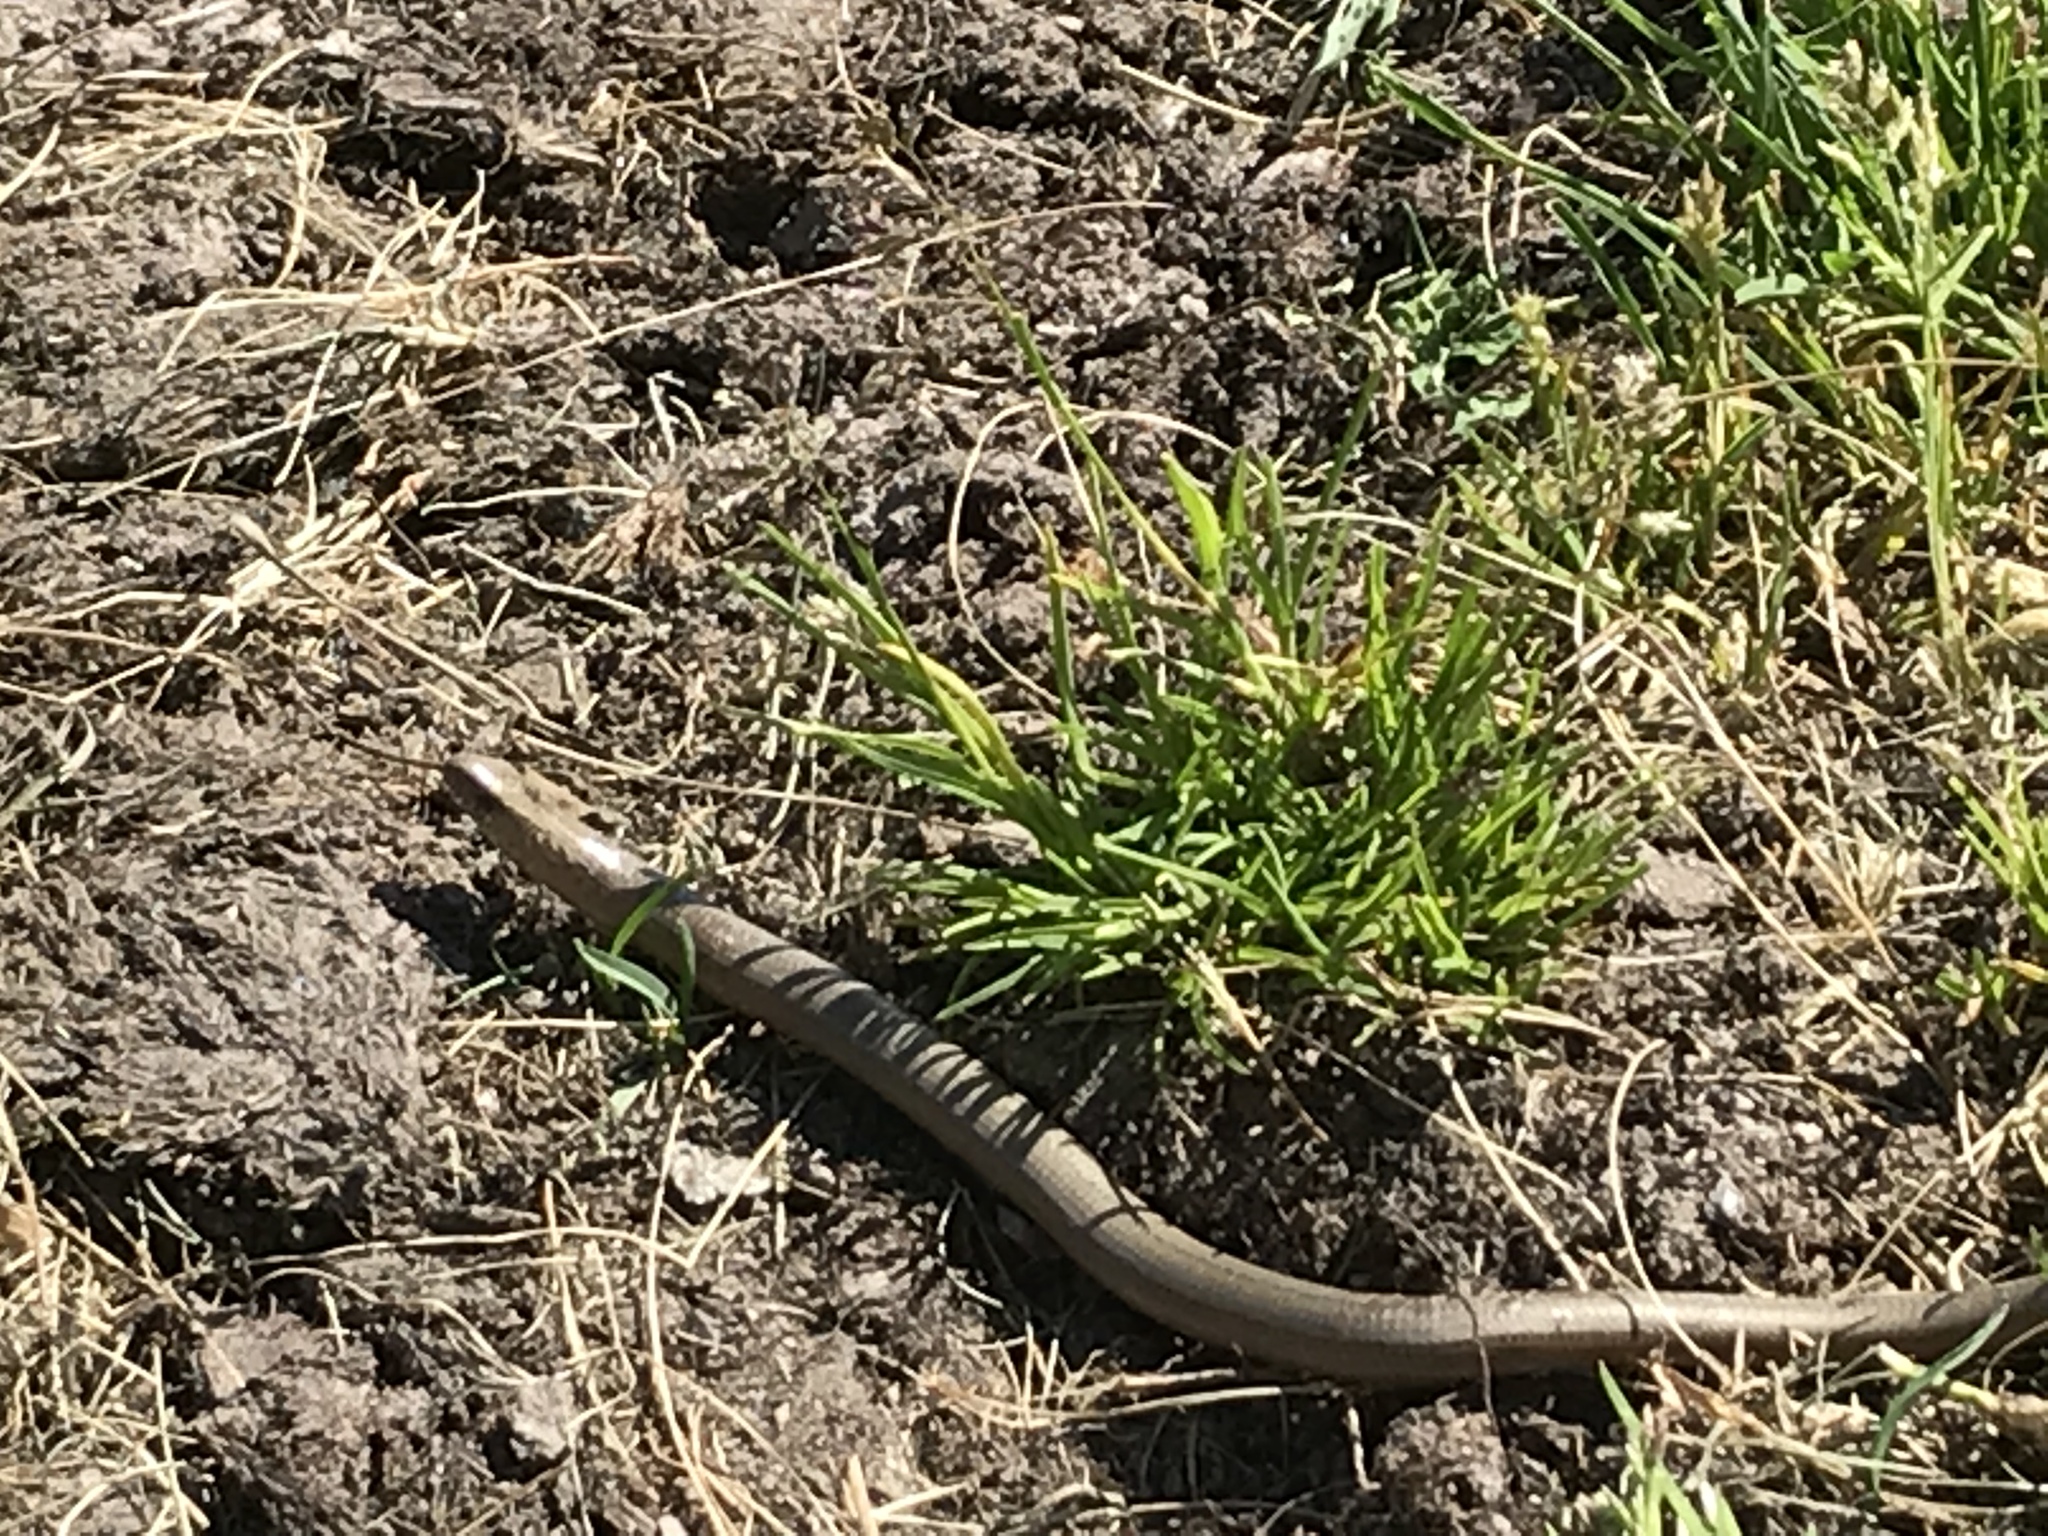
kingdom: Animalia
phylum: Chordata
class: Squamata
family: Anguidae
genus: Anguis
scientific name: Anguis fragilis
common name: Slow worm
